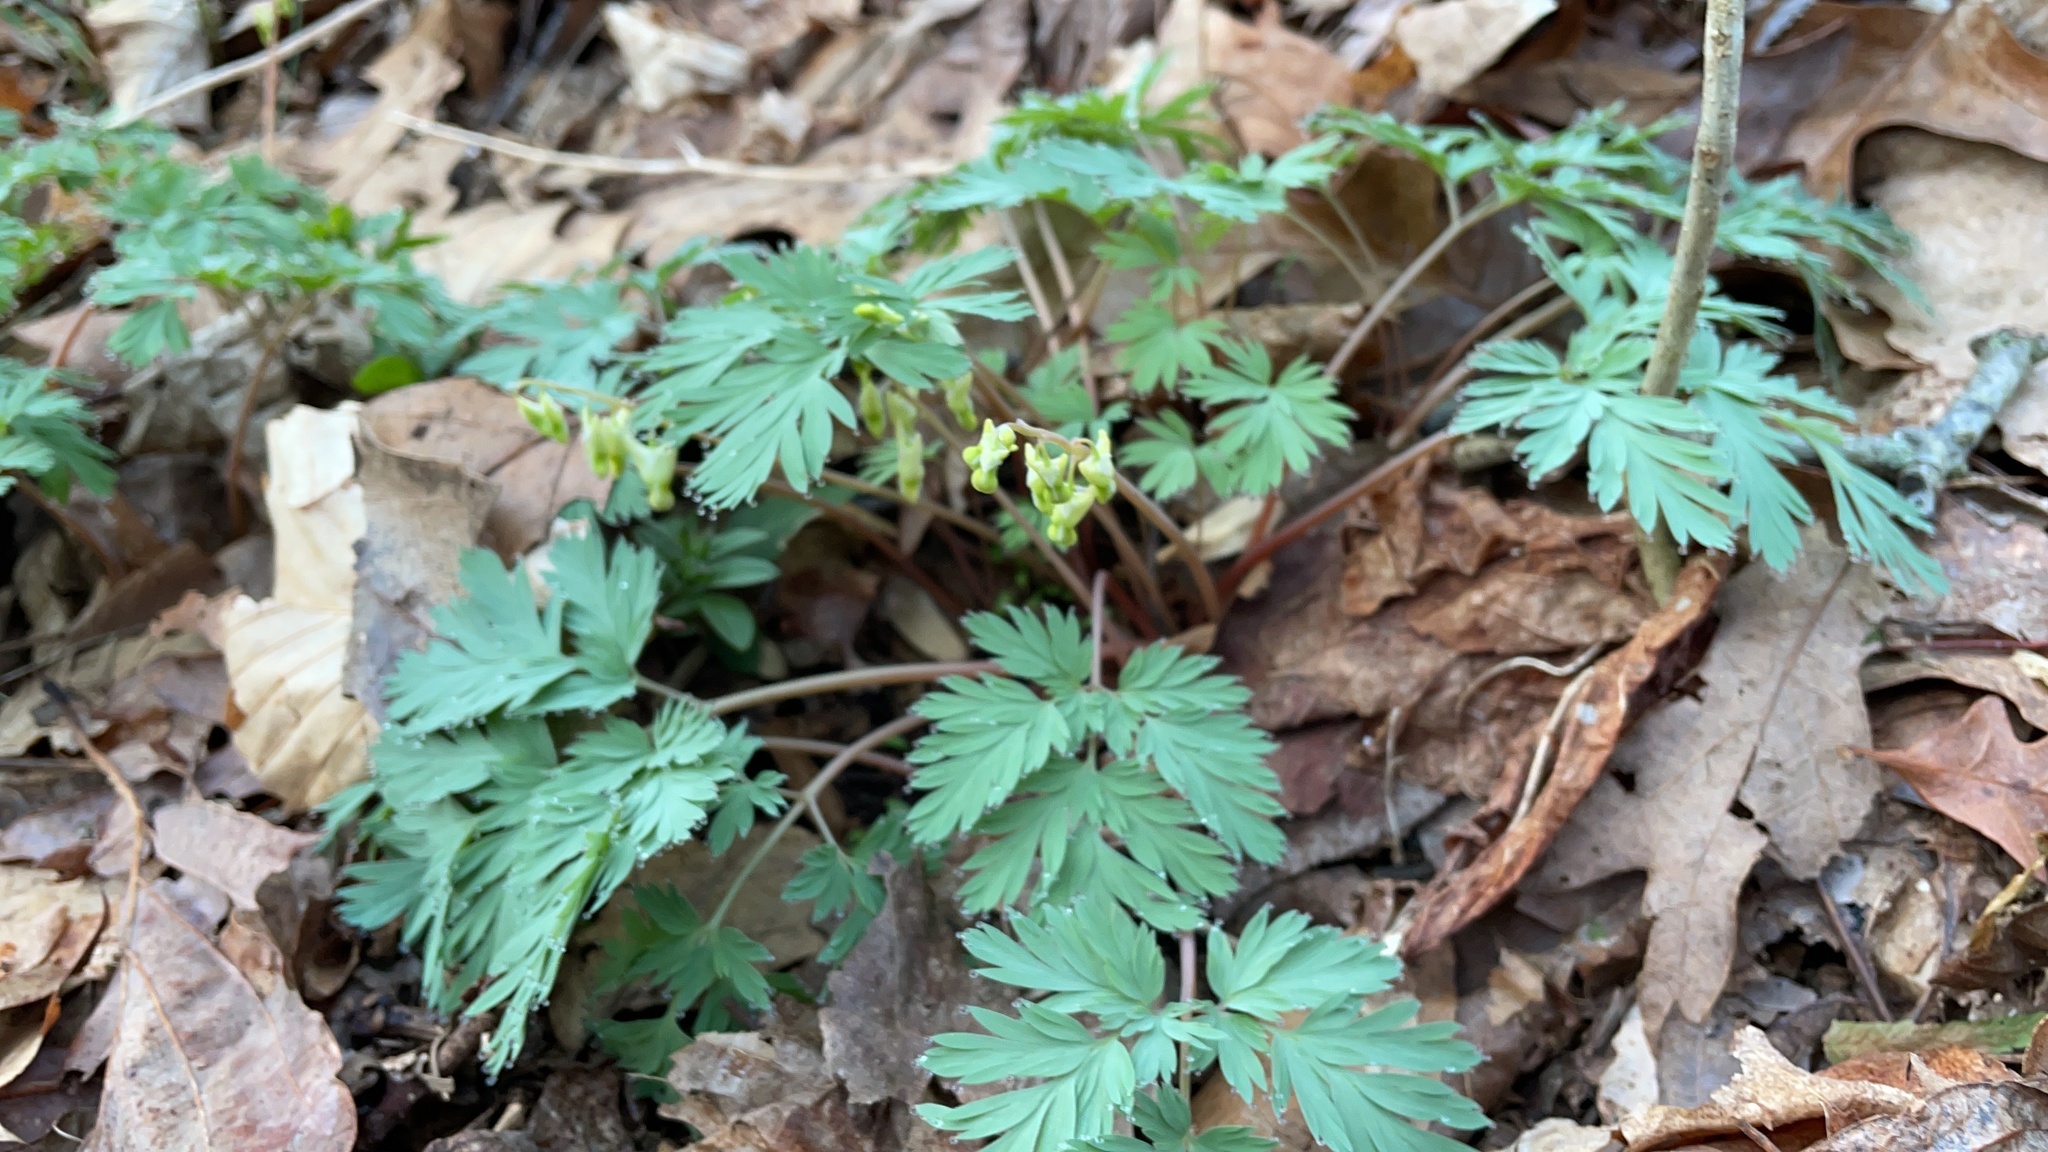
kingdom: Plantae
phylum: Tracheophyta
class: Magnoliopsida
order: Ranunculales
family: Papaveraceae
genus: Dicentra
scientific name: Dicentra cucullaria
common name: Dutchman's breeches
